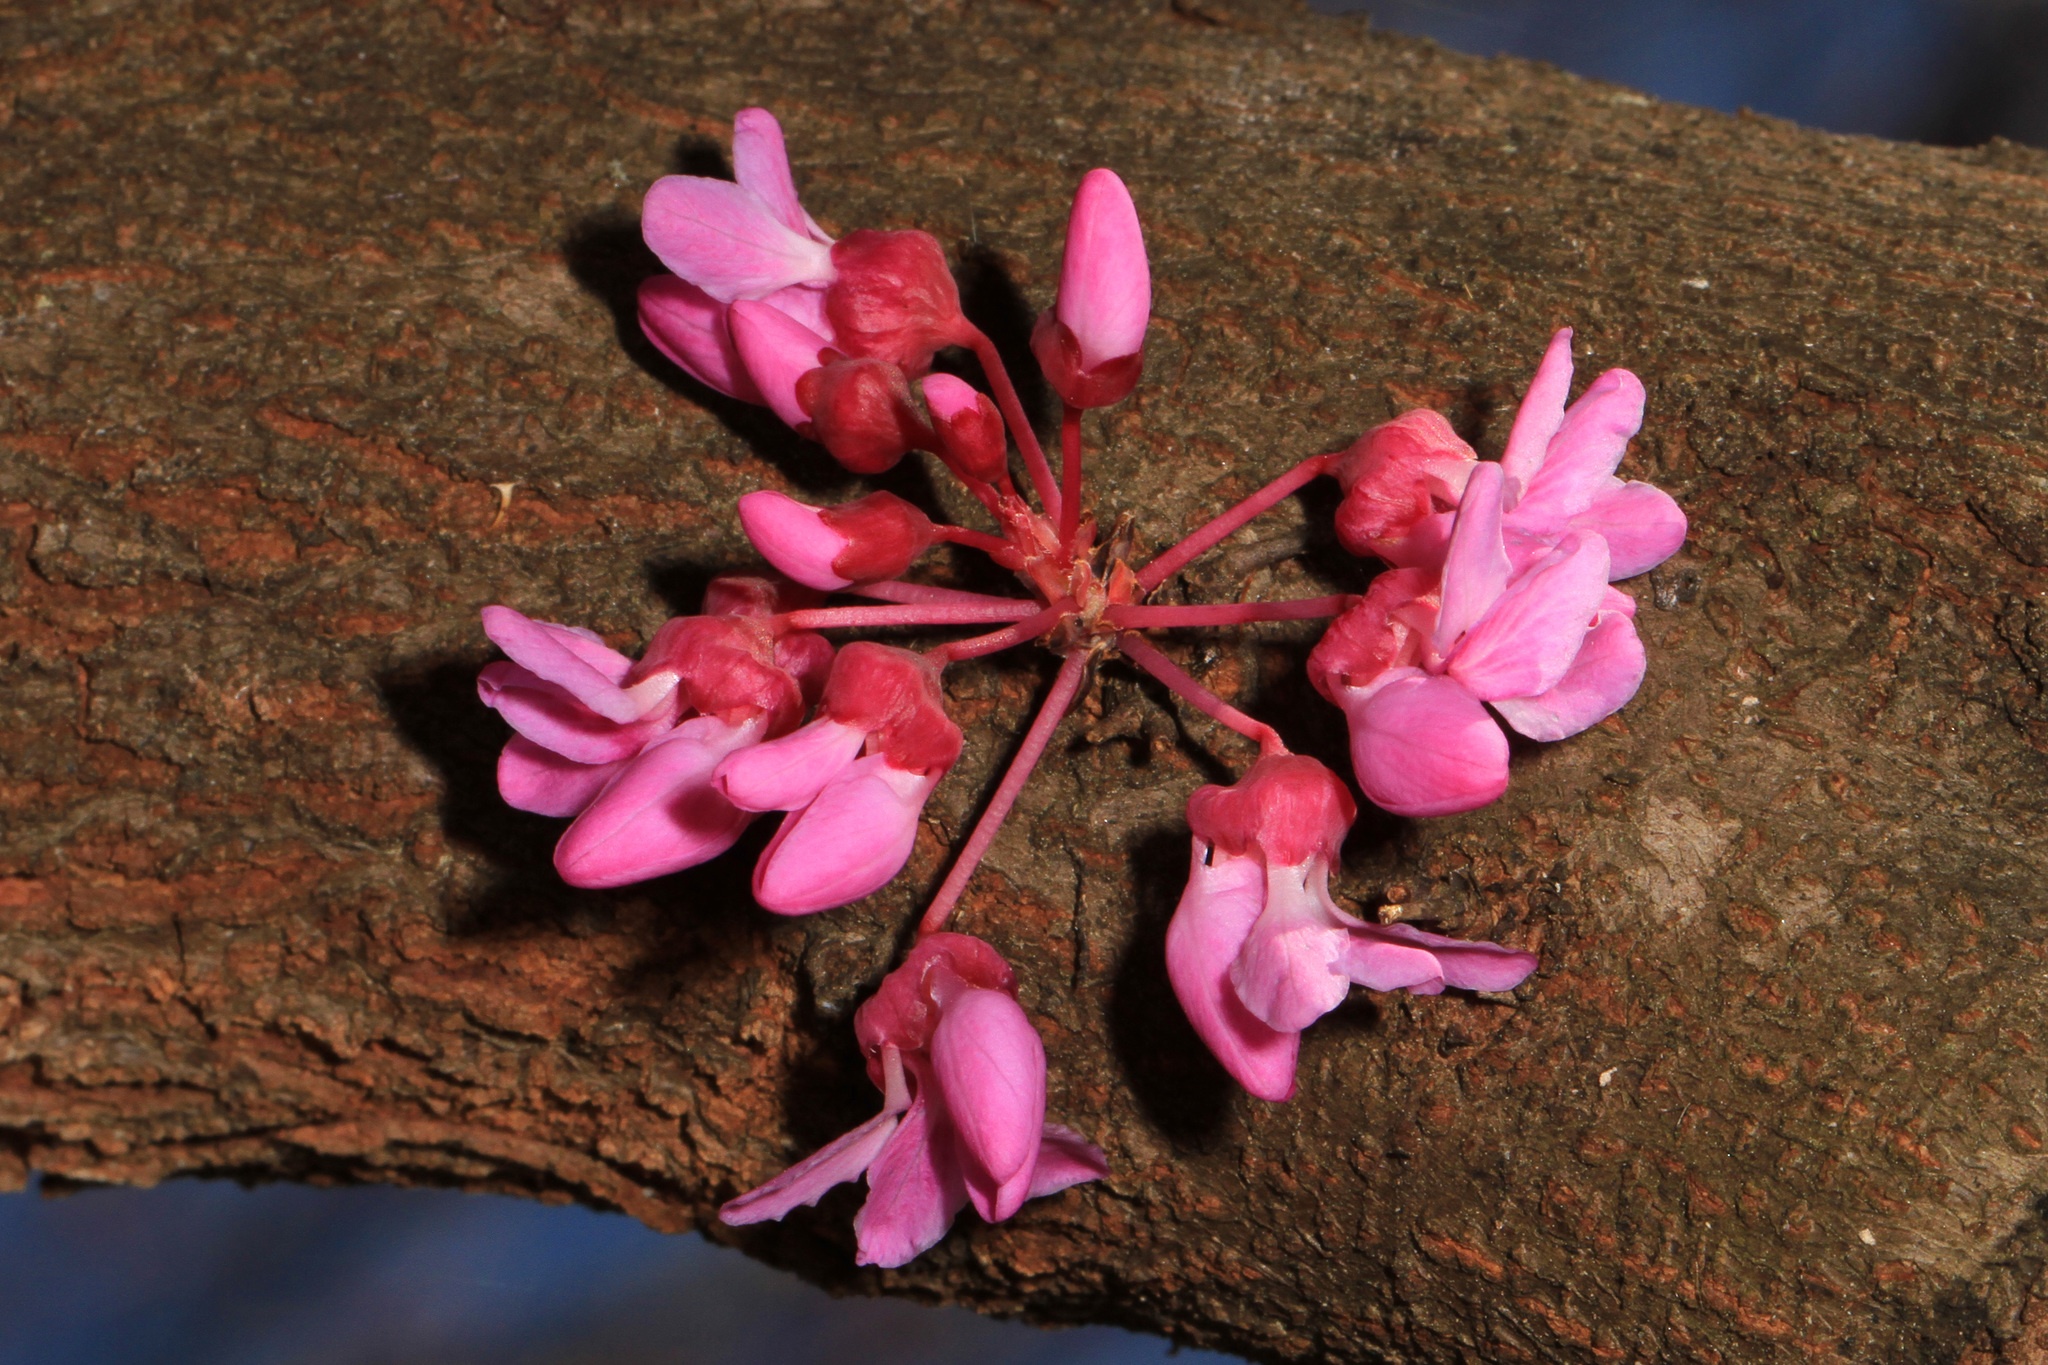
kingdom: Plantae
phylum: Tracheophyta
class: Magnoliopsida
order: Fabales
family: Fabaceae
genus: Cercis
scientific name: Cercis canadensis
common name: Eastern redbud
